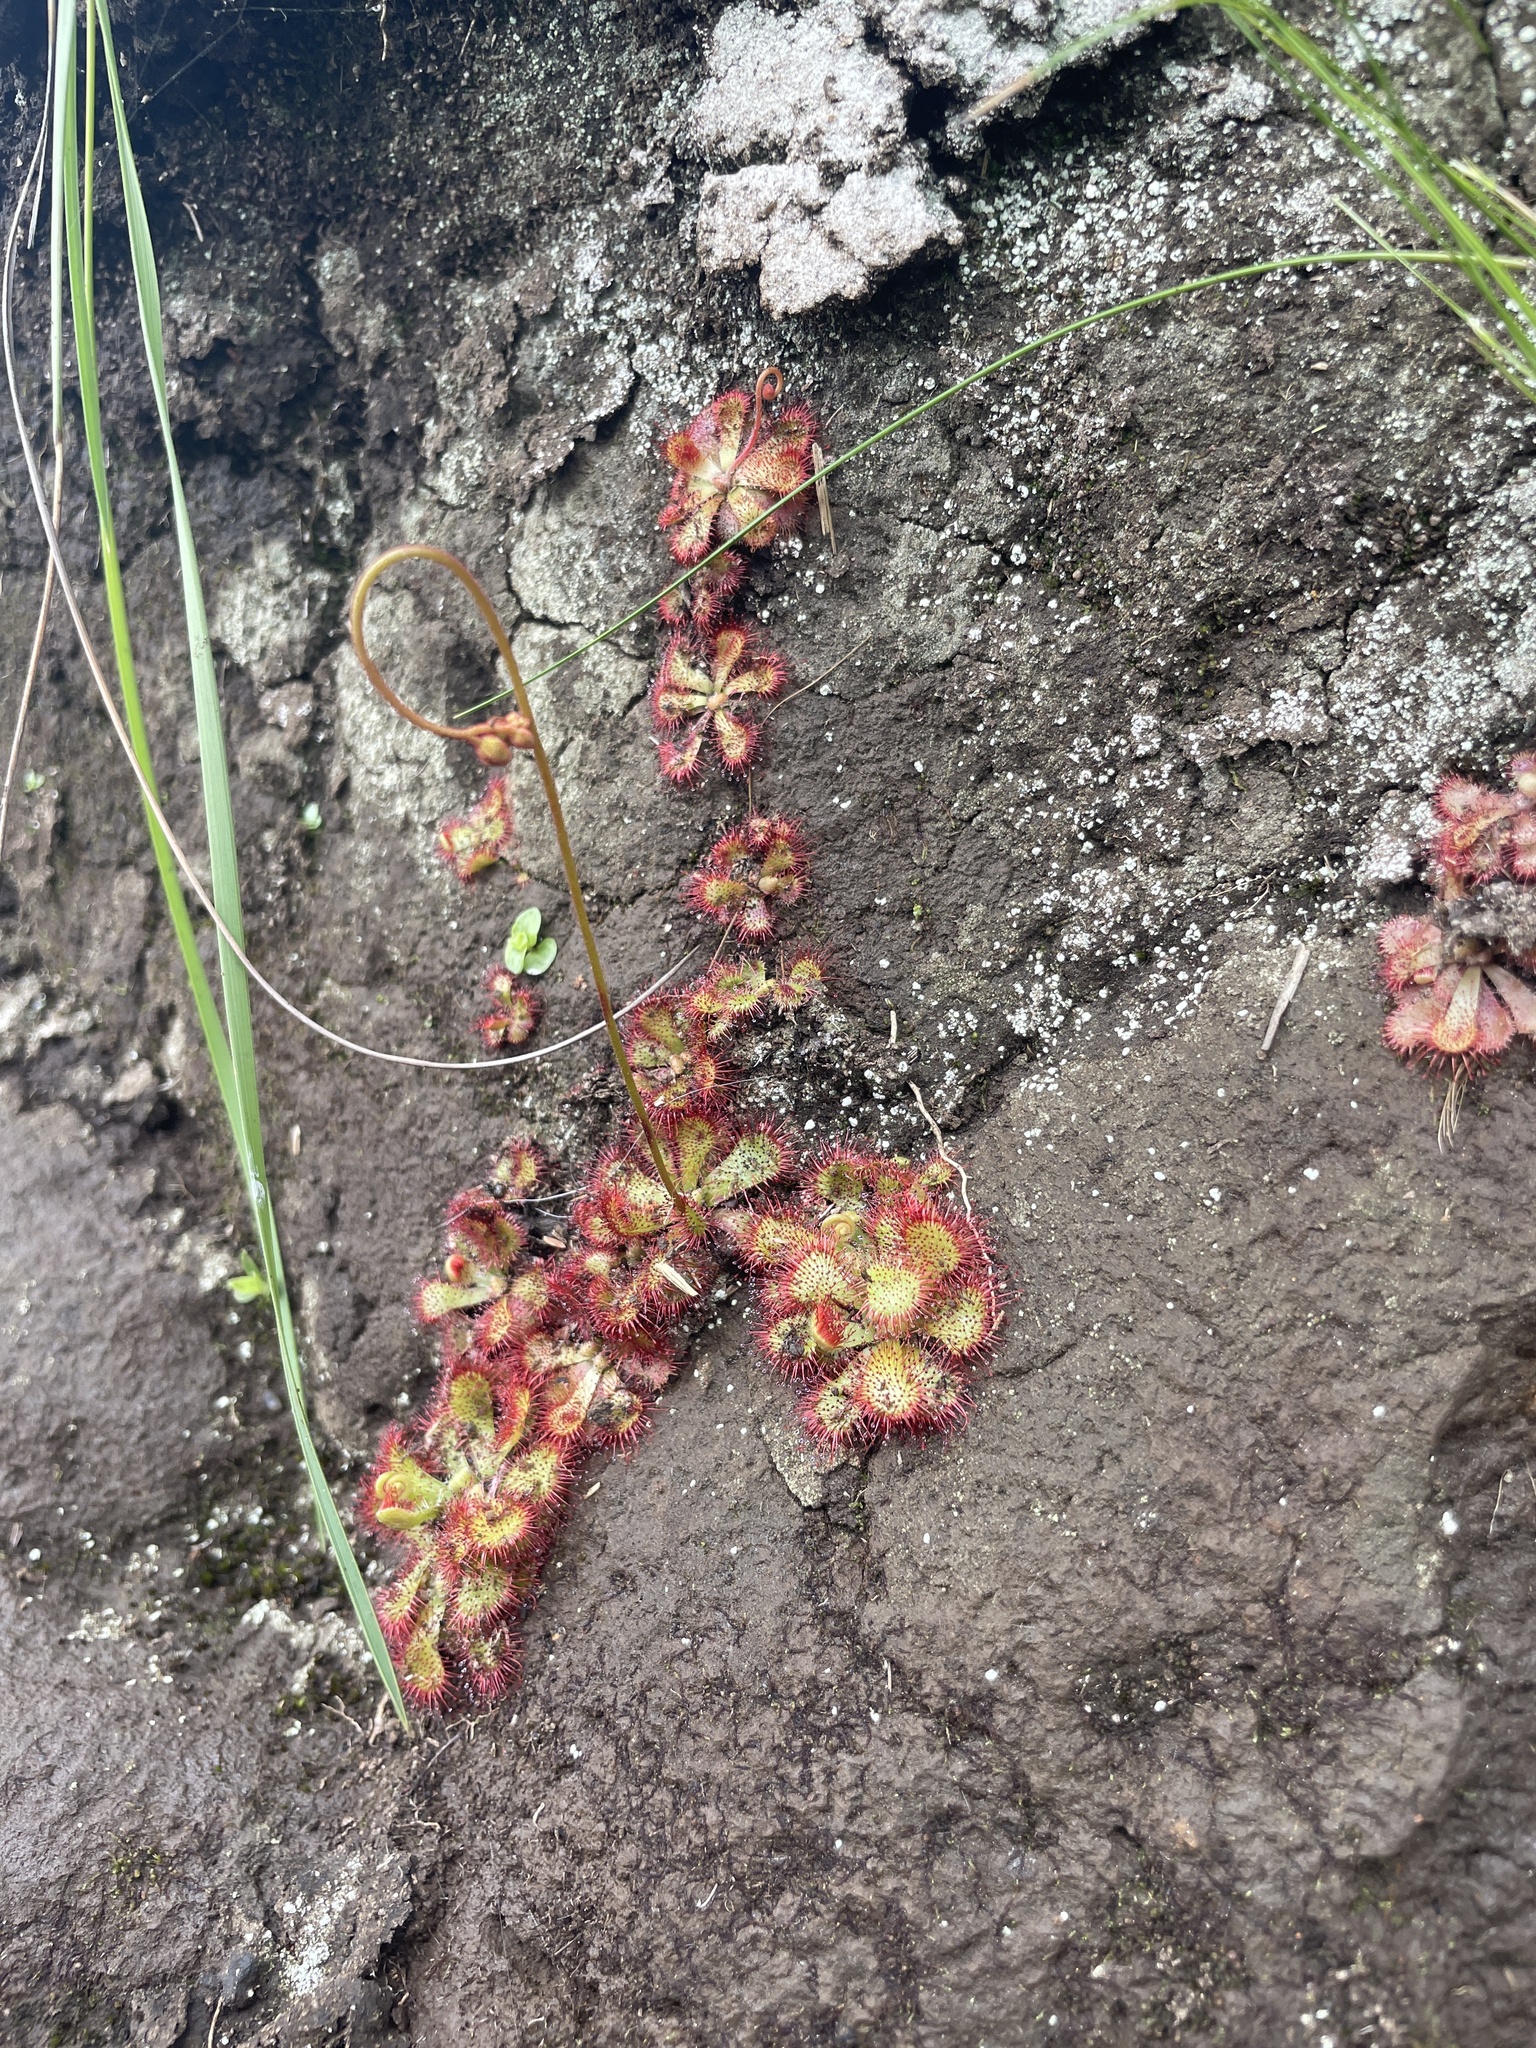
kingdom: Plantae
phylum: Tracheophyta
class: Magnoliopsida
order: Caryophyllales
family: Droseraceae
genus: Drosera
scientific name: Drosera natalensis
